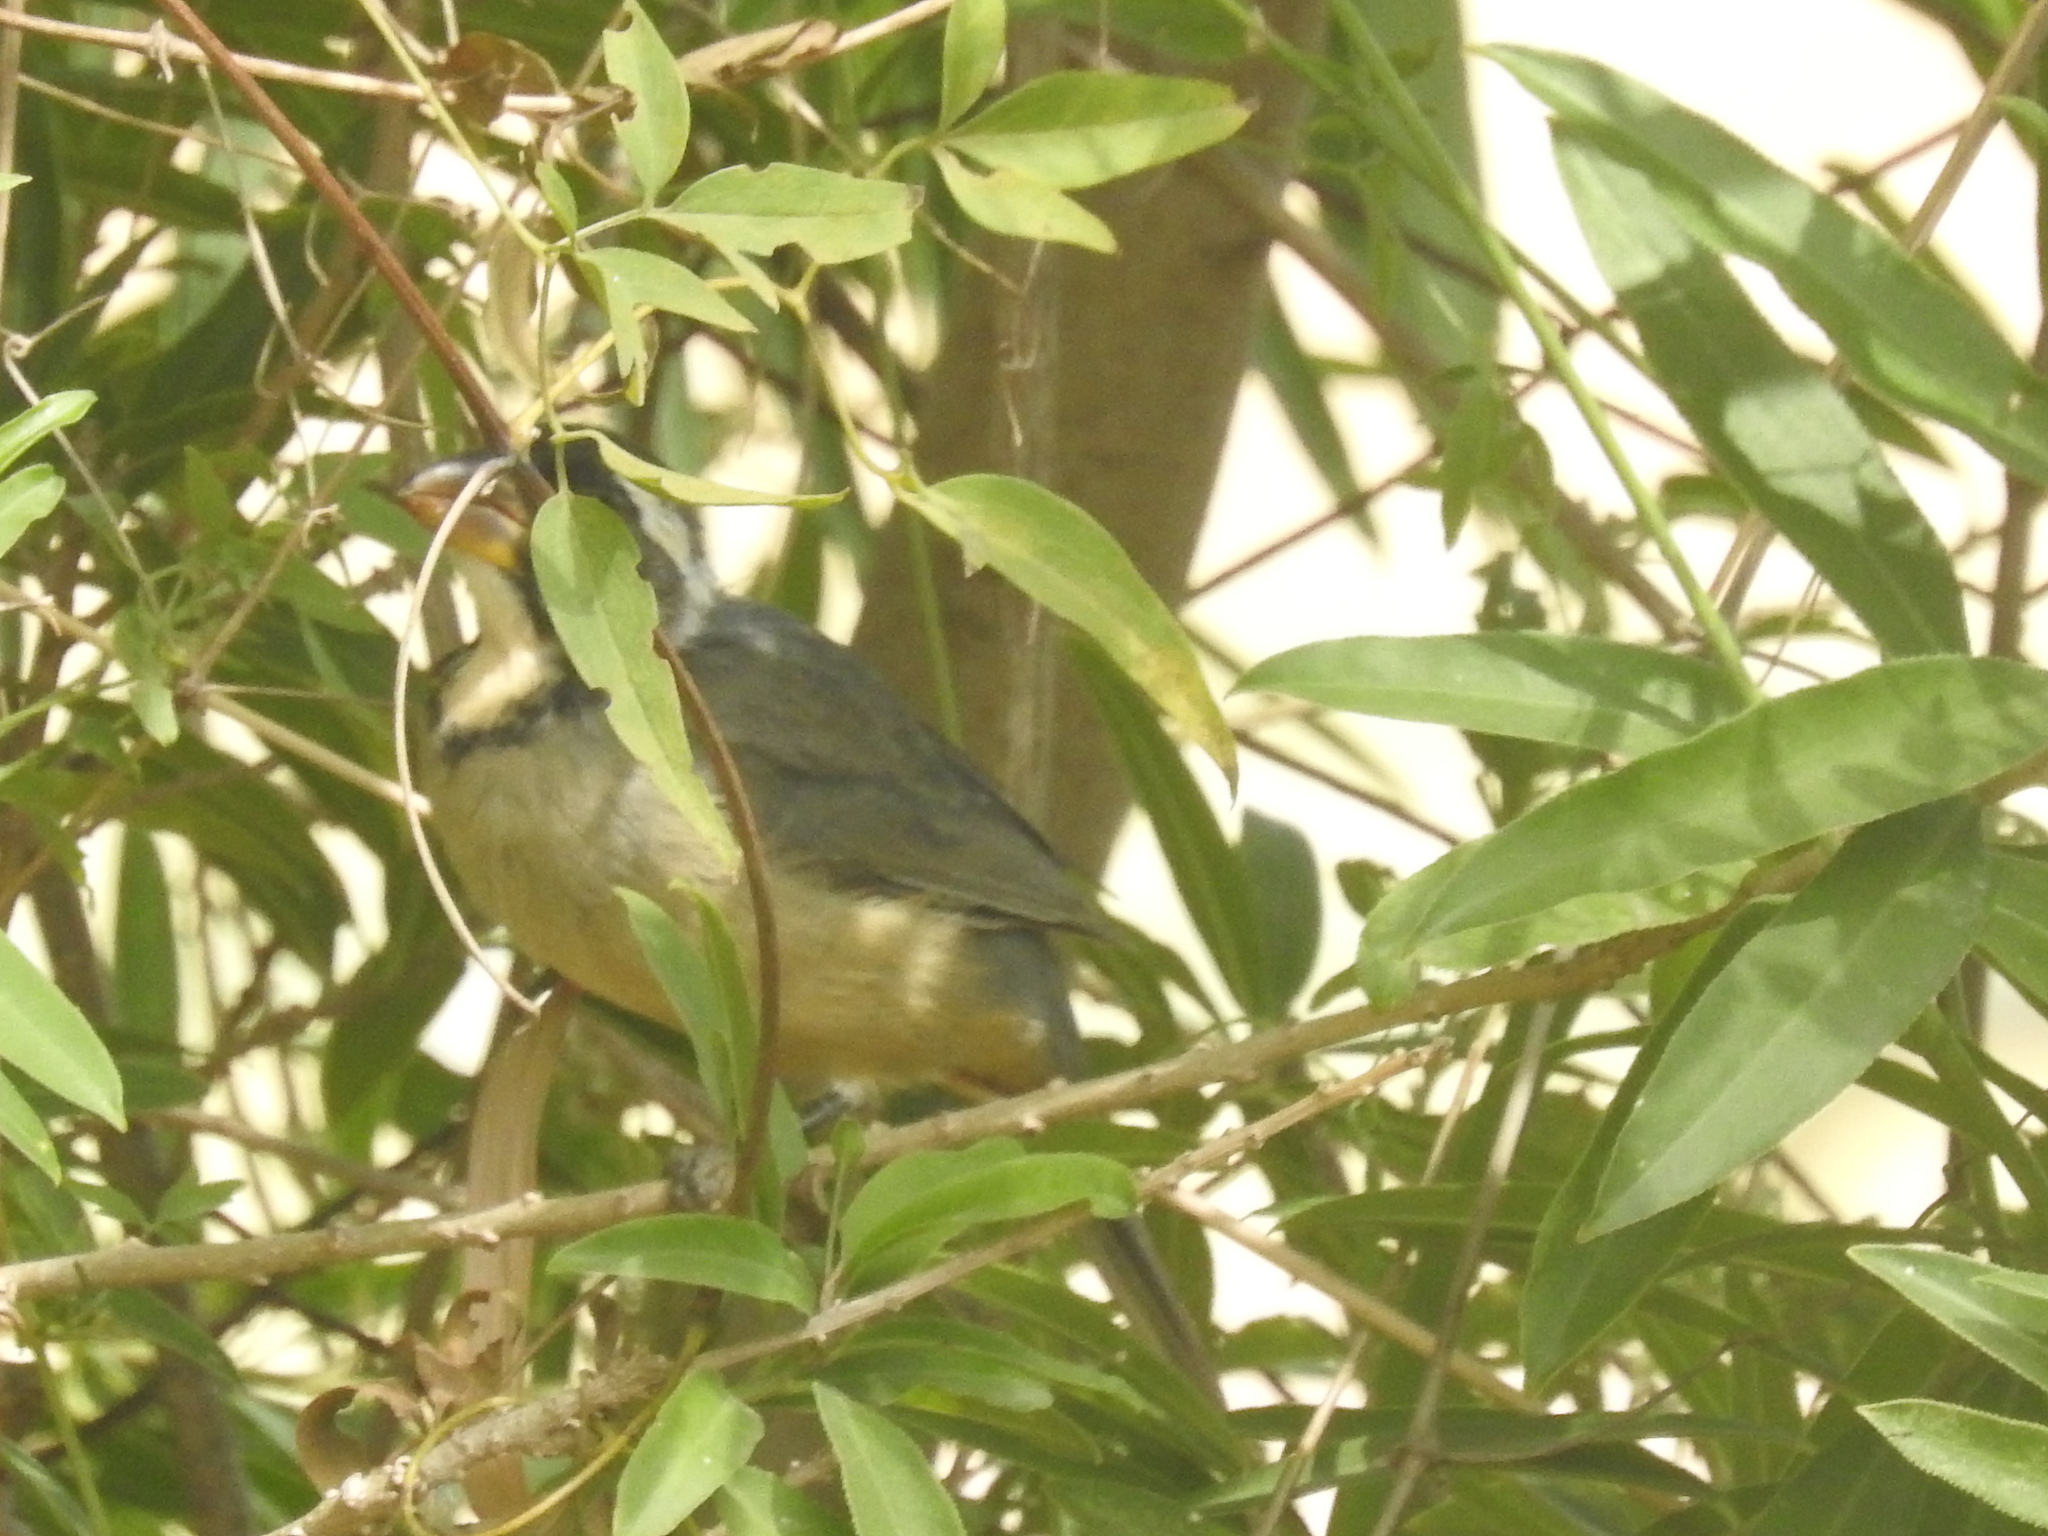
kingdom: Animalia
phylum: Chordata
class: Aves
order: Passeriformes
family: Thraupidae
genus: Saltator
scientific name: Saltator aurantiirostris
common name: Golden-billed saltator
